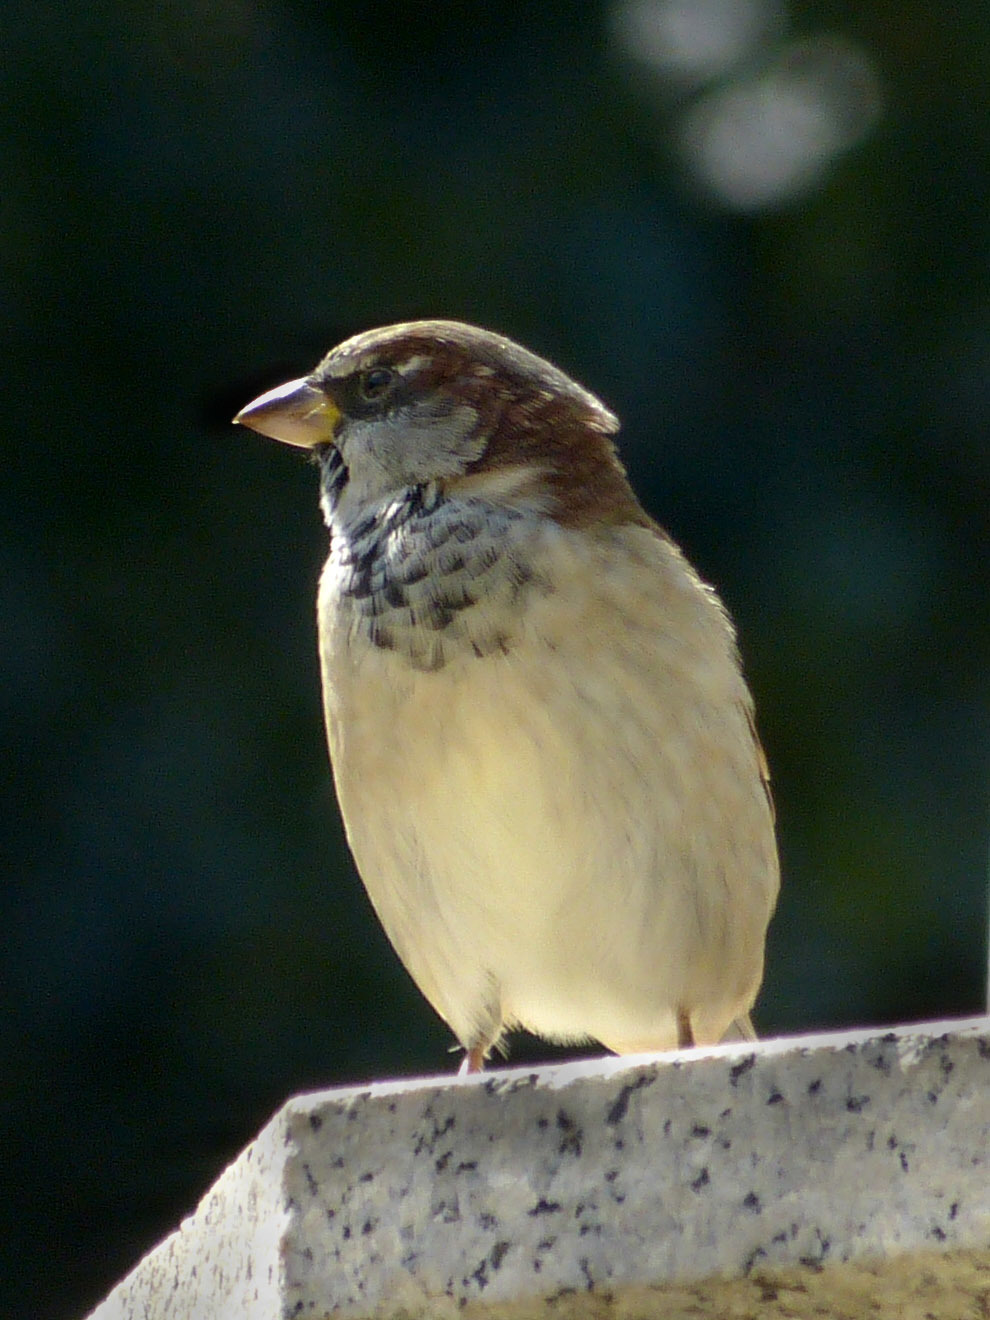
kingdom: Animalia
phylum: Chordata
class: Aves
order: Passeriformes
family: Passeridae
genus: Passer
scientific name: Passer domesticus
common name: House sparrow
